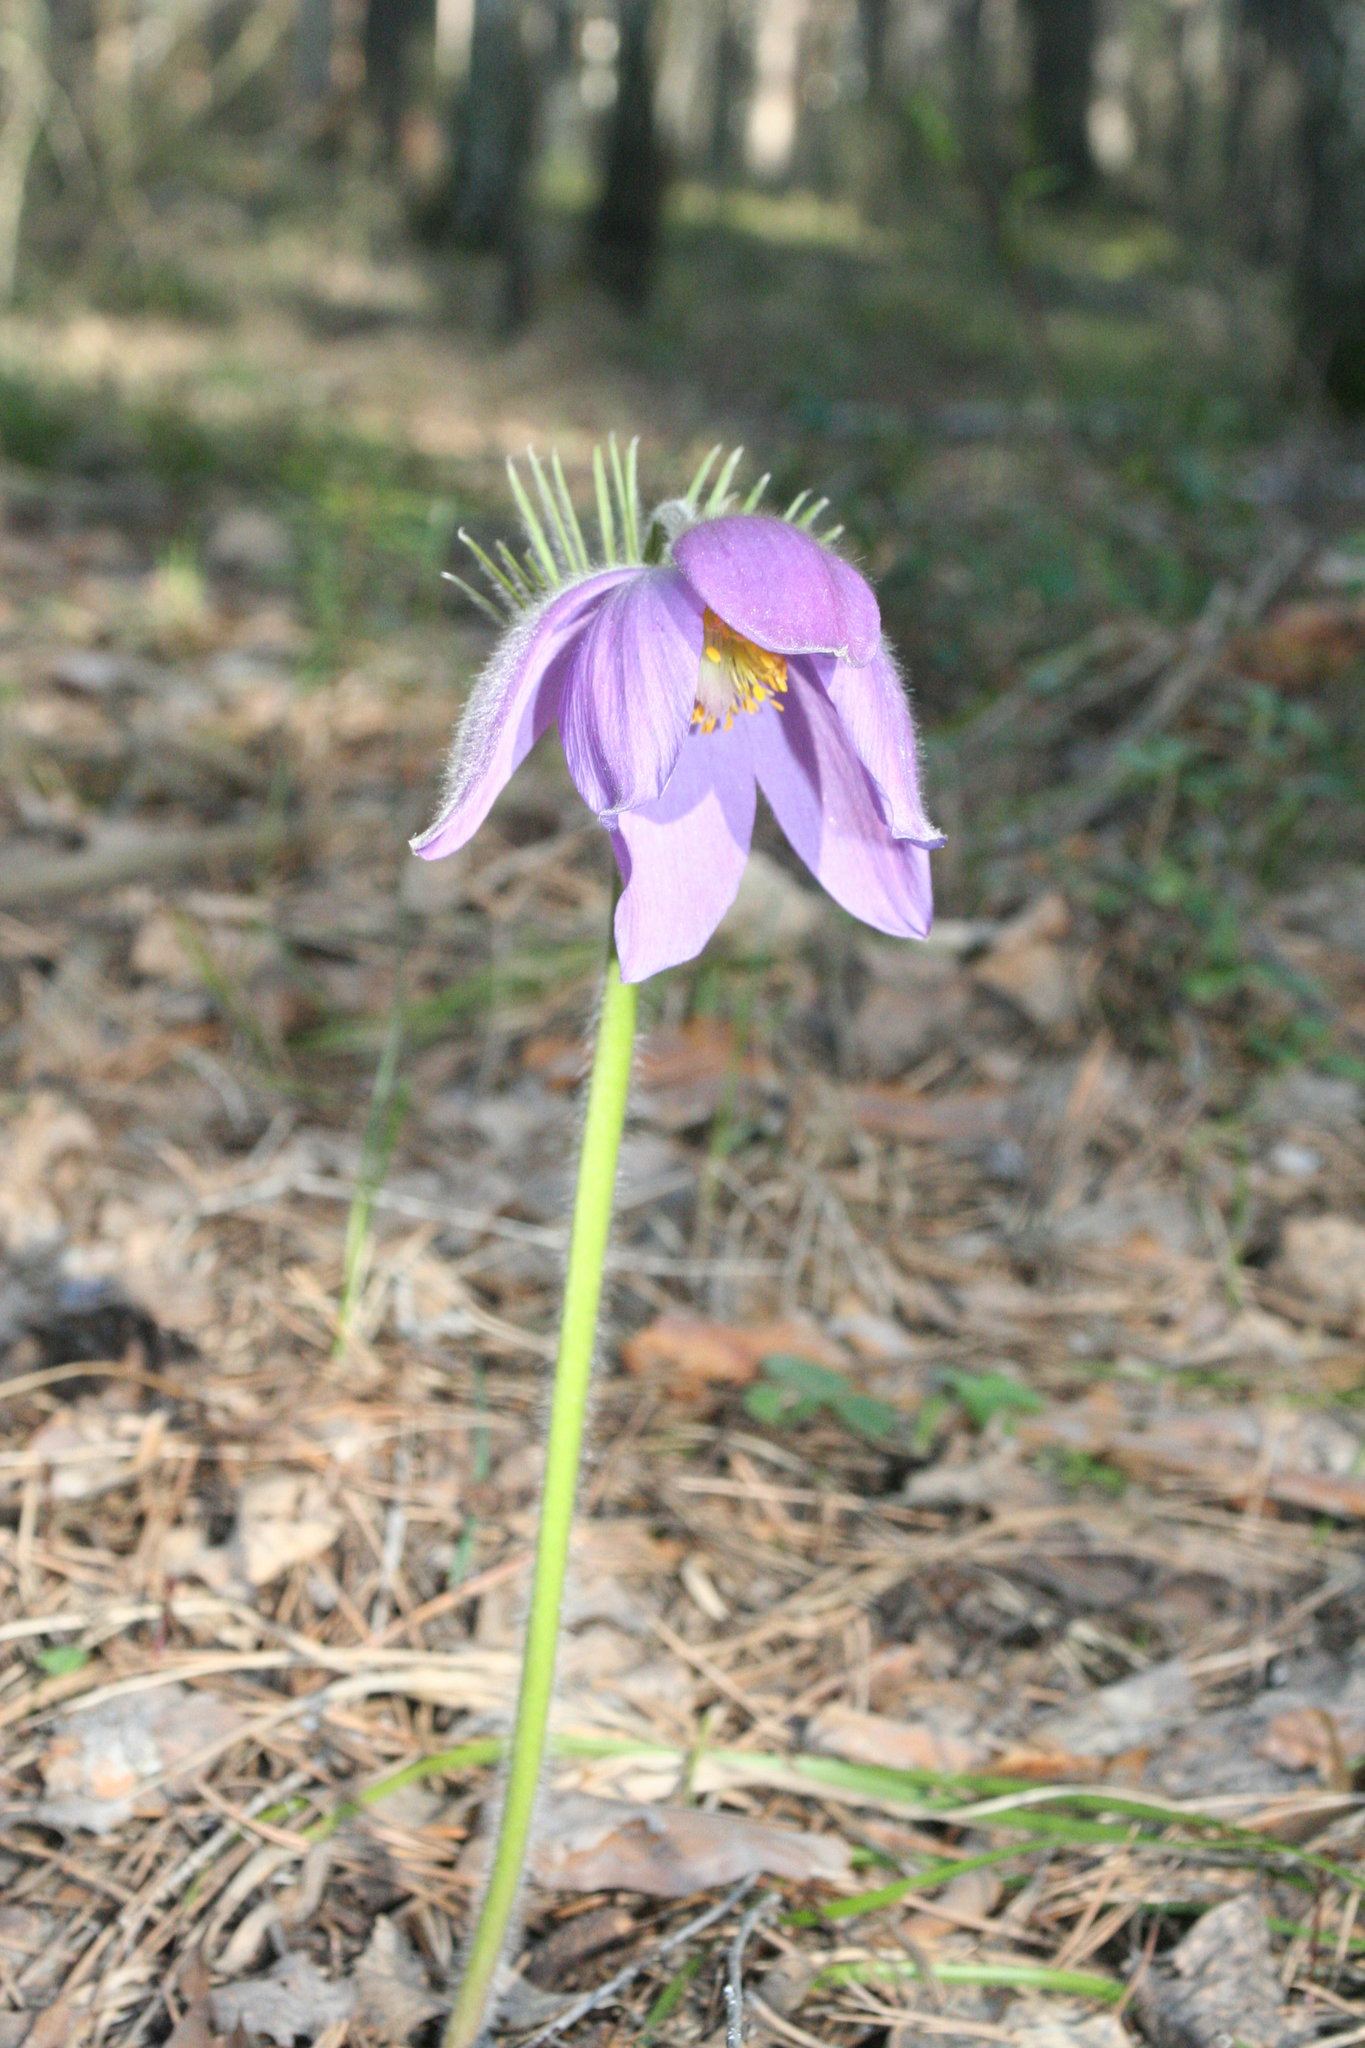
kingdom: Plantae
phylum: Tracheophyta
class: Magnoliopsida
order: Ranunculales
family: Ranunculaceae
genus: Pulsatilla
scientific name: Pulsatilla patens
